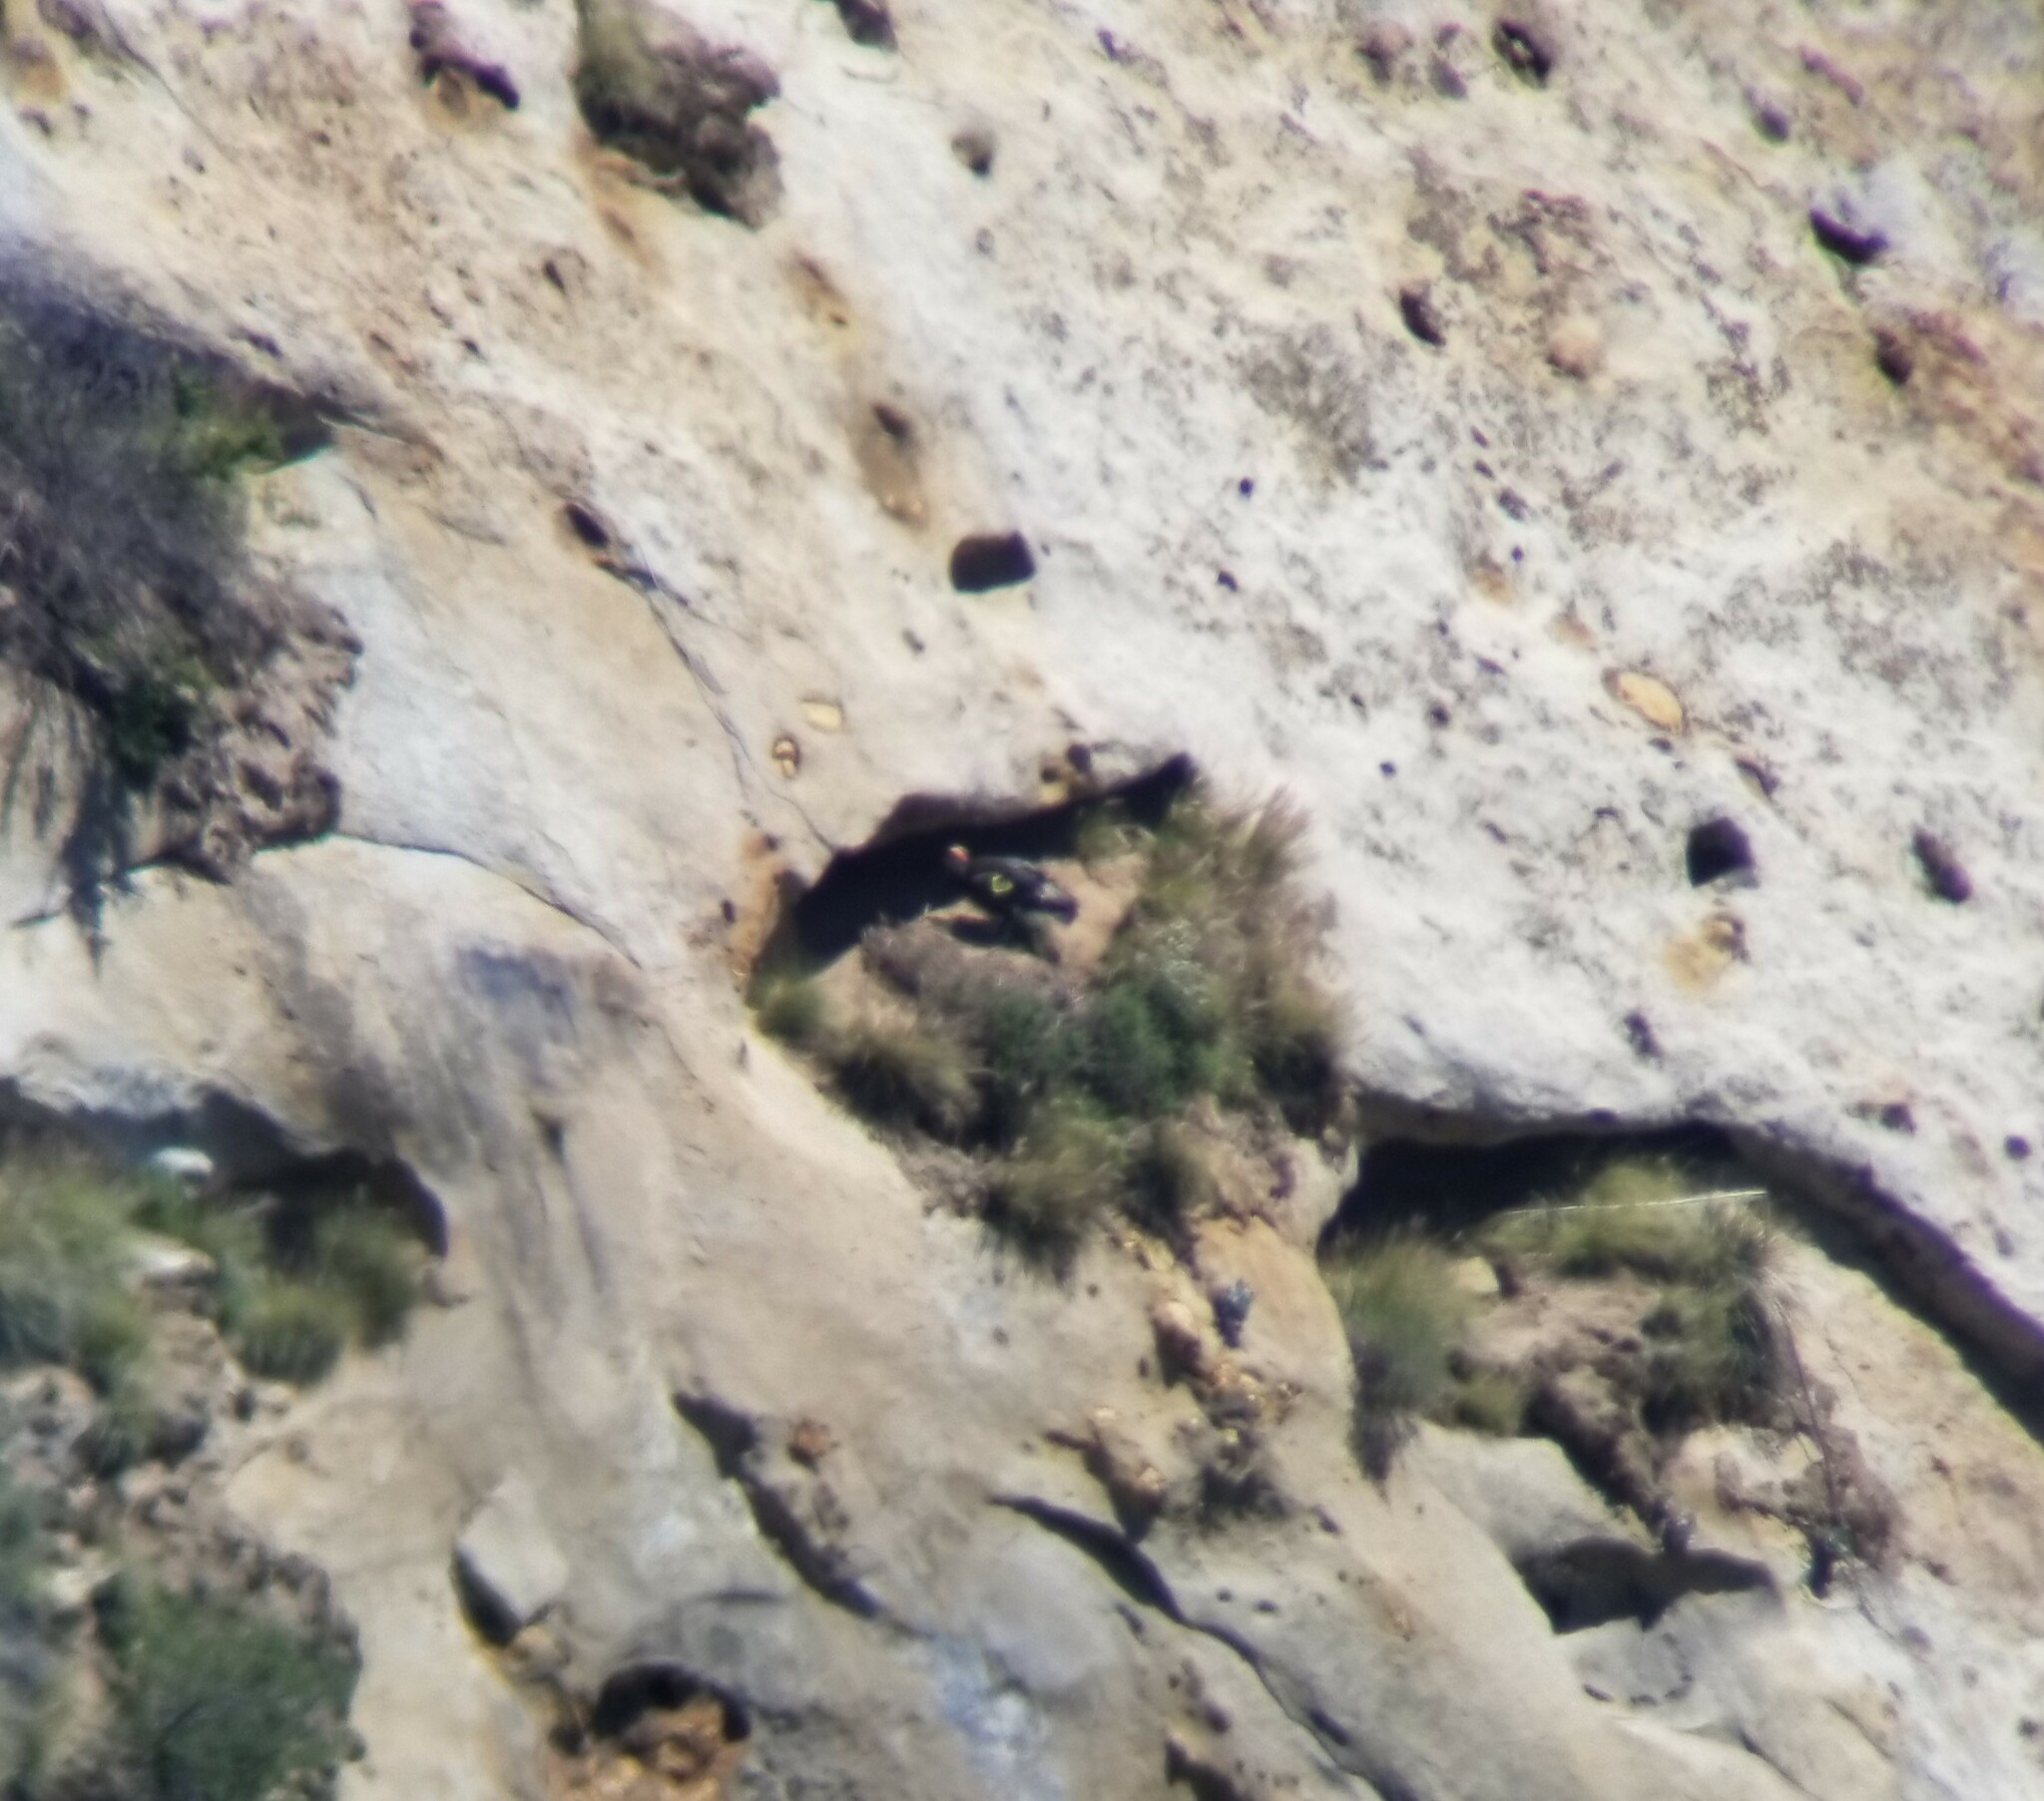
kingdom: Animalia
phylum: Chordata
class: Aves
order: Accipitriformes
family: Cathartidae
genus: Gymnogyps
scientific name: Gymnogyps californianus
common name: California condor
